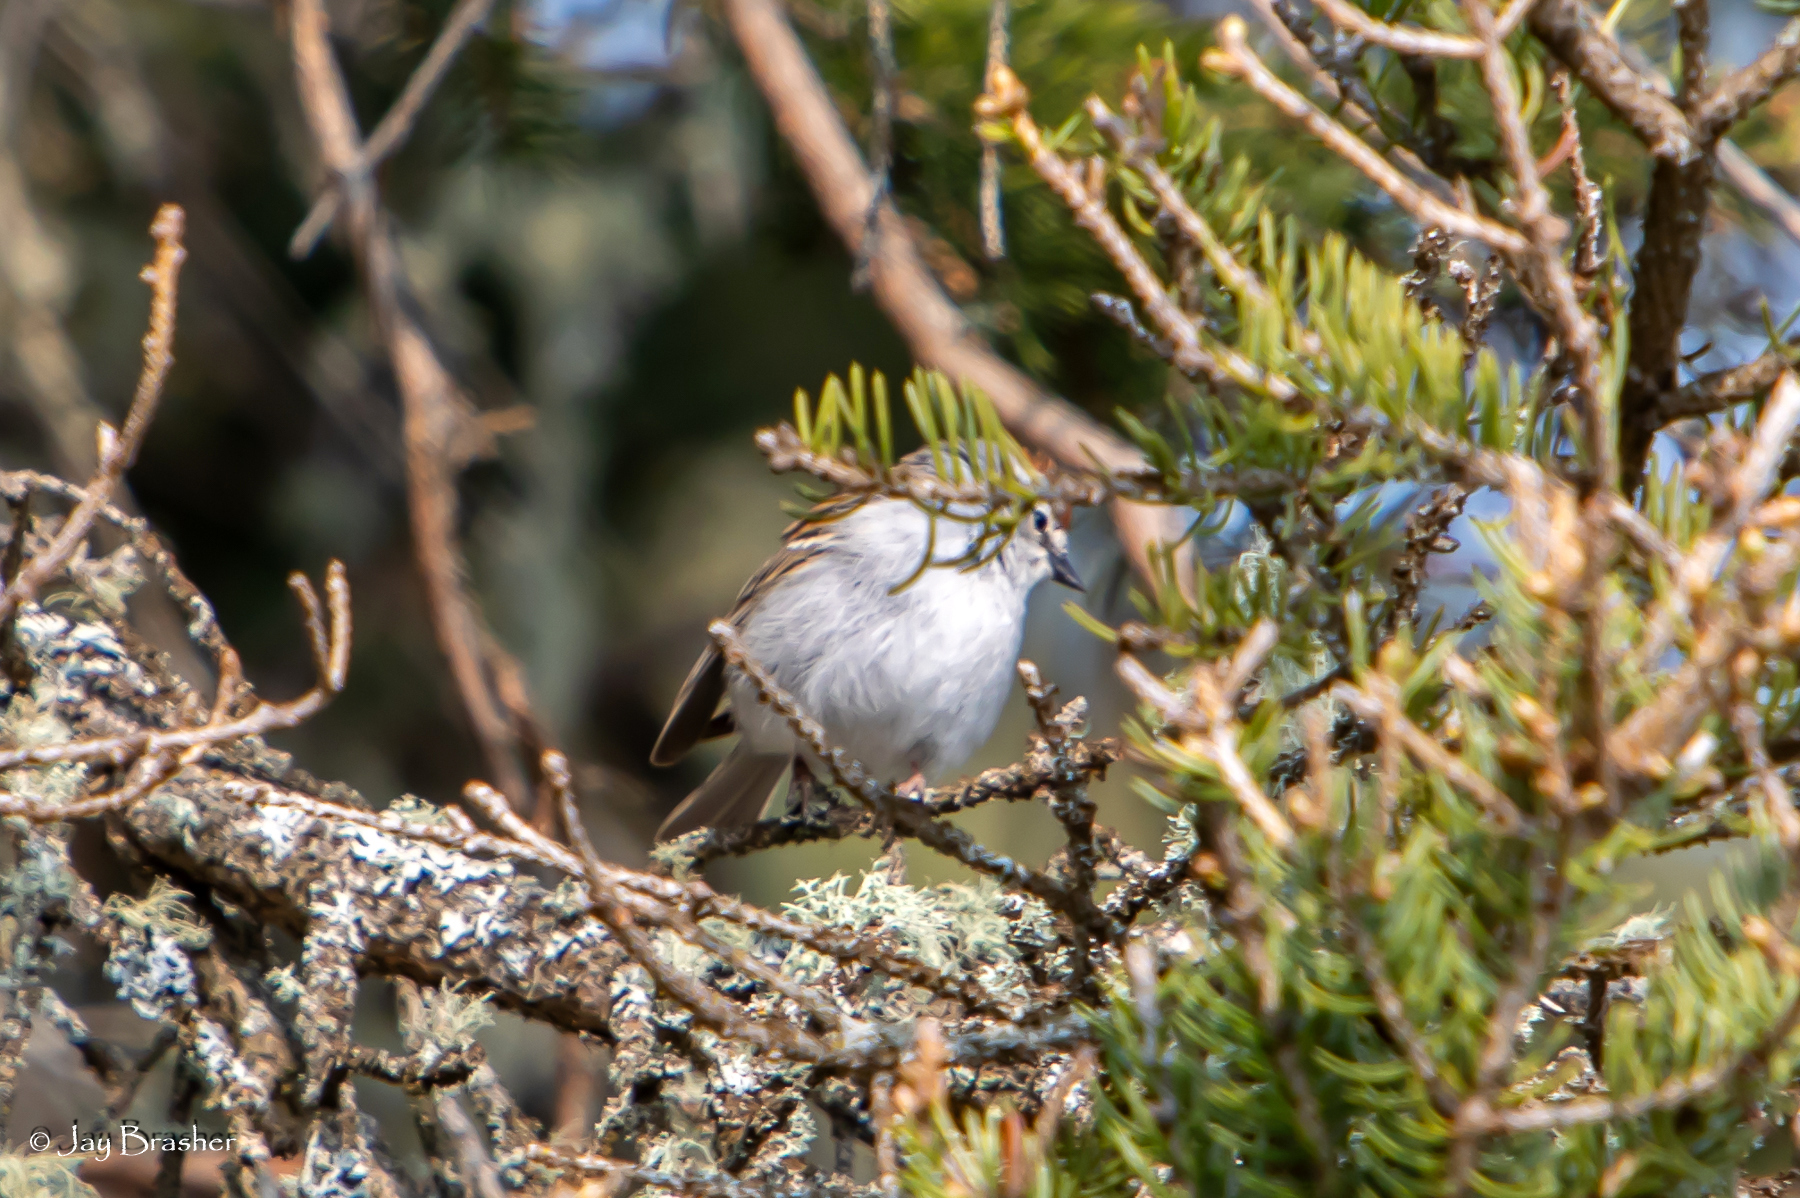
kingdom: Animalia
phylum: Chordata
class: Aves
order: Passeriformes
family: Passerellidae
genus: Spizella
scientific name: Spizella passerina
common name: Chipping sparrow
